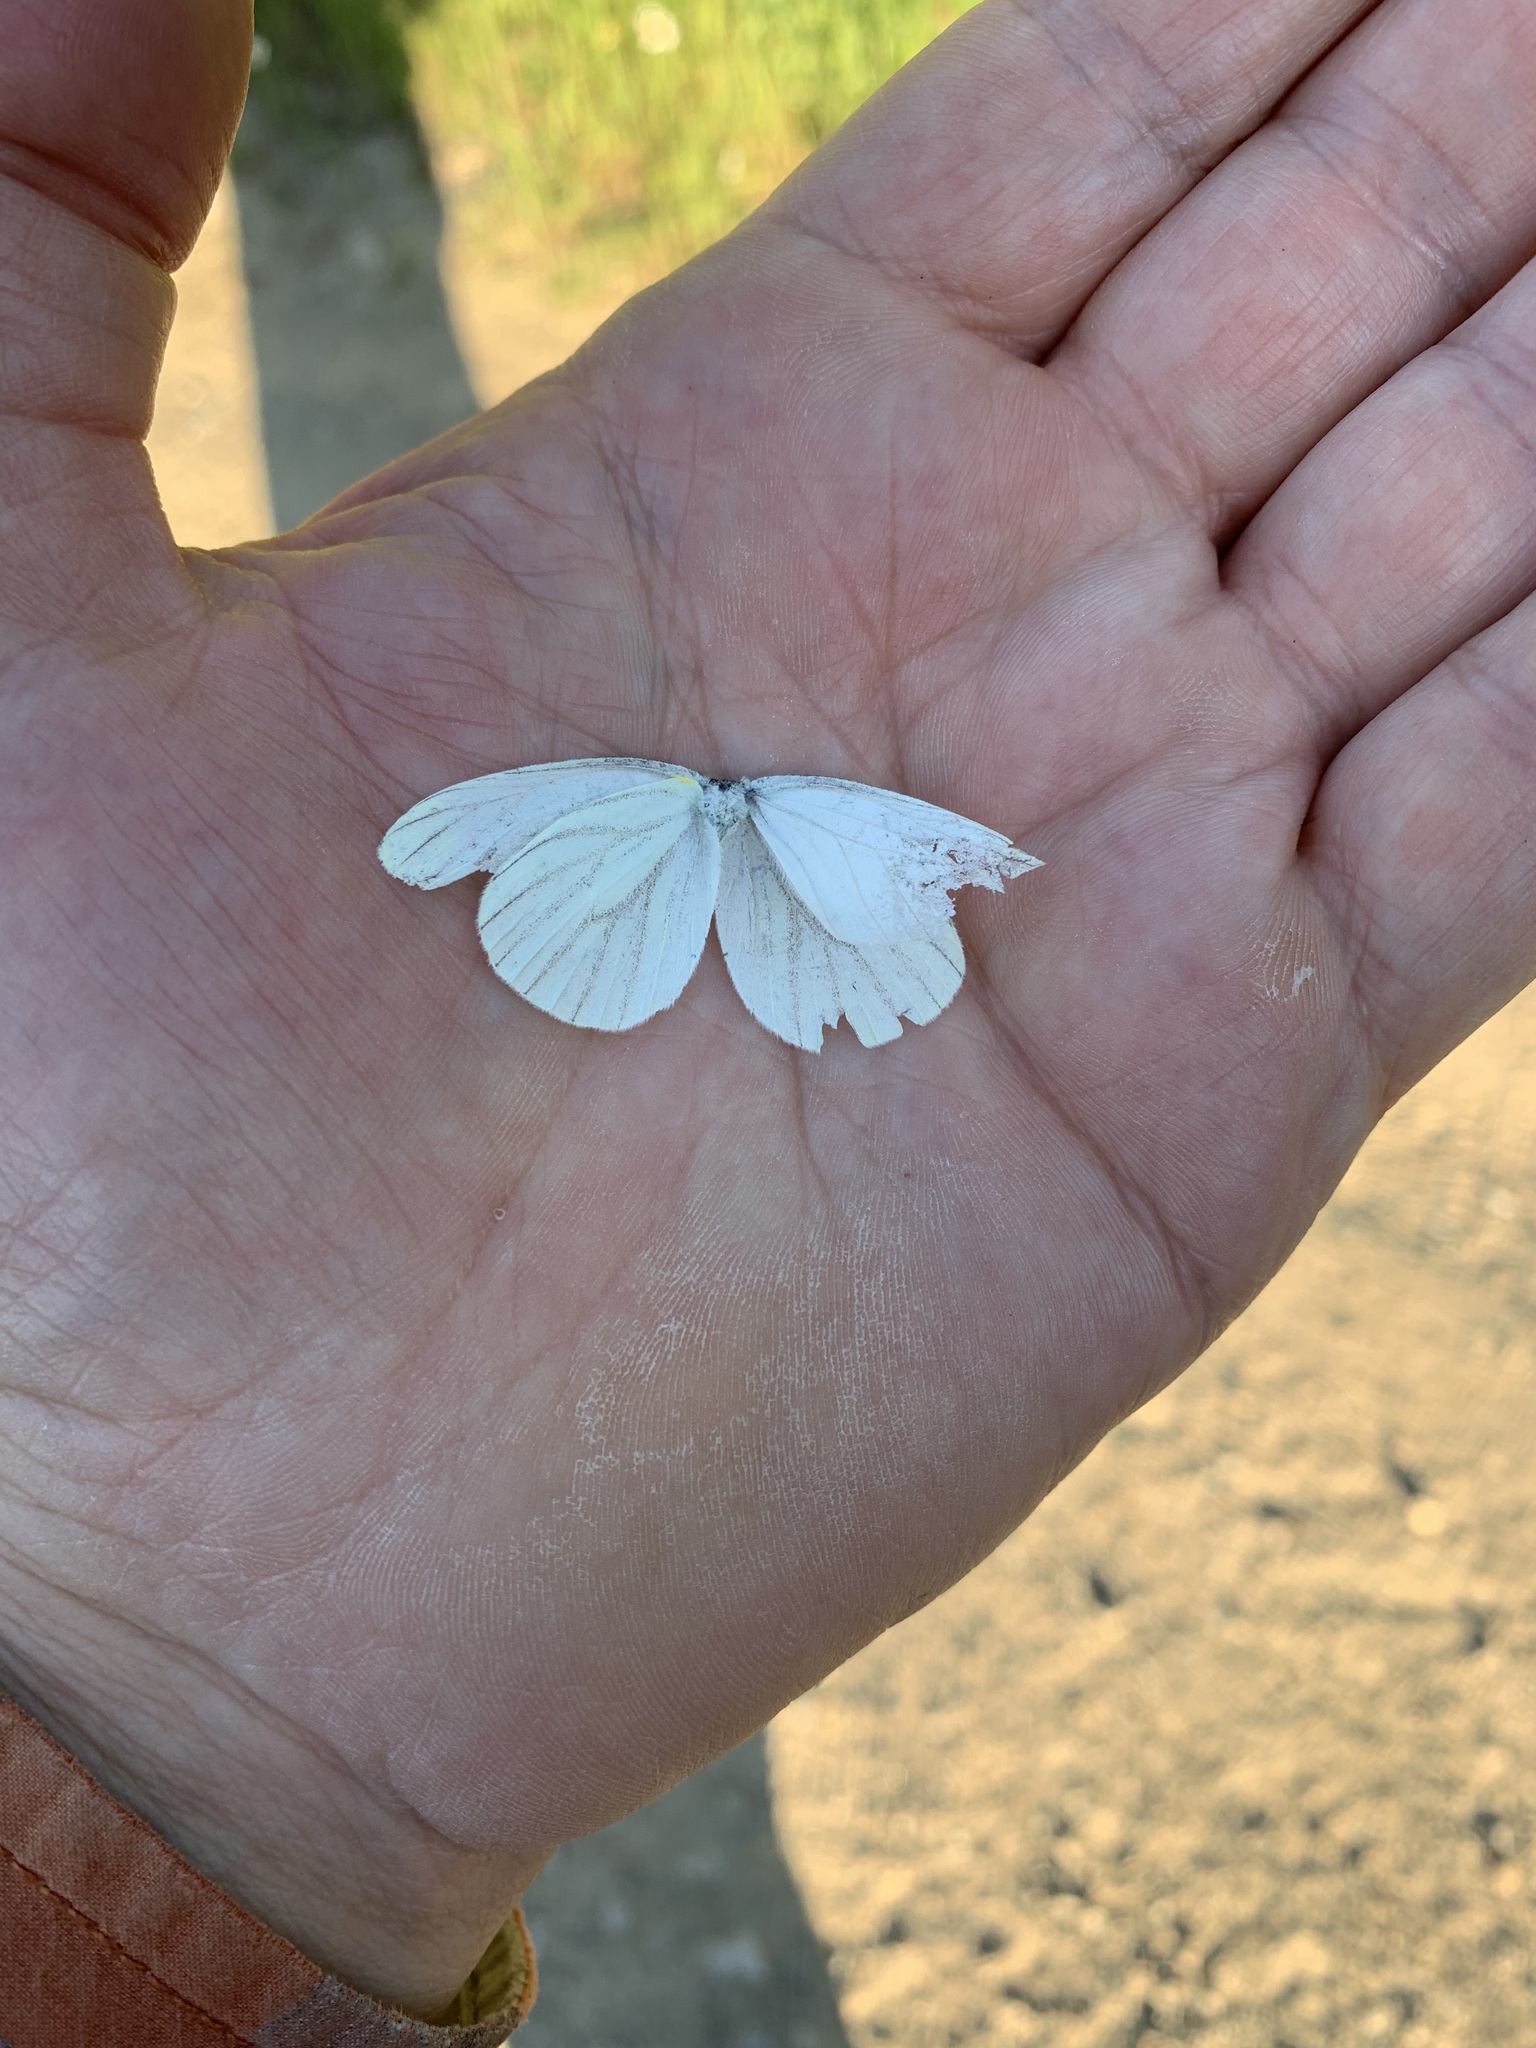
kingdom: Animalia
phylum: Arthropoda
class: Insecta
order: Lepidoptera
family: Pieridae
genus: Pieris
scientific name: Pieris oleracea
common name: Mustard white
